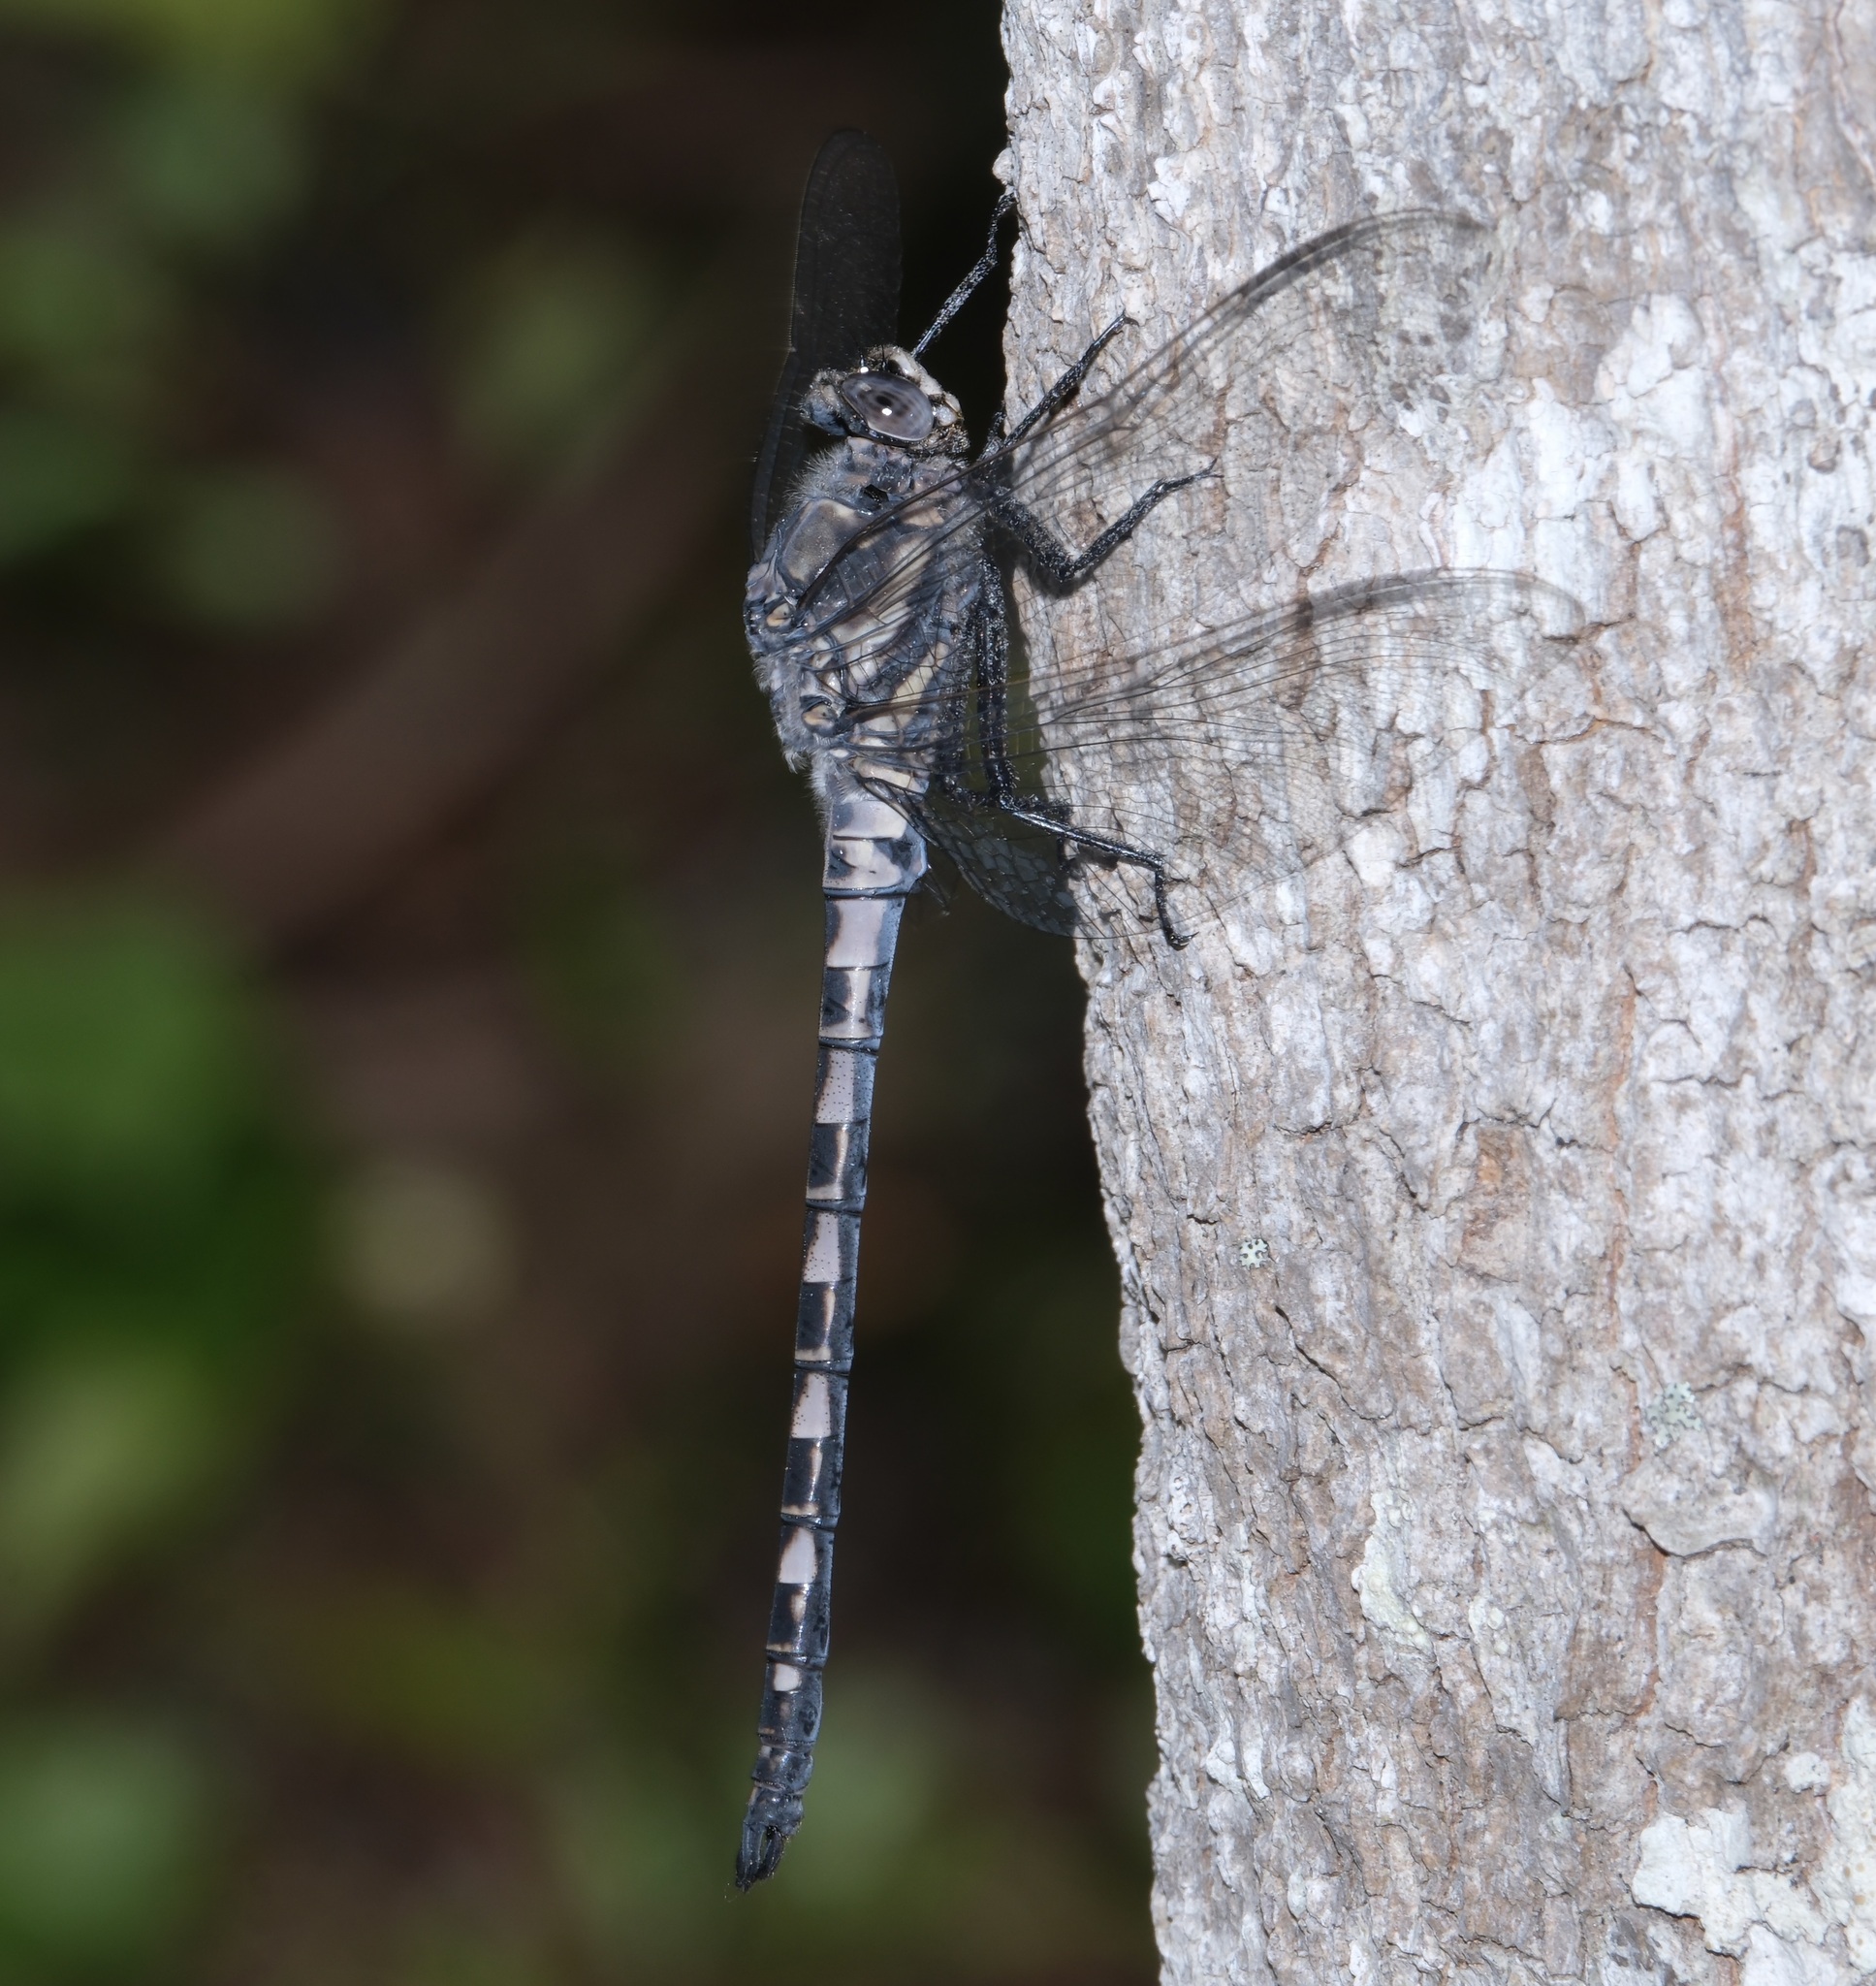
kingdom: Animalia
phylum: Arthropoda
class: Insecta
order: Odonata
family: Petaluridae
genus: Tachopteryx
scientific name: Tachopteryx thoreyi
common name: Gray petaltail
